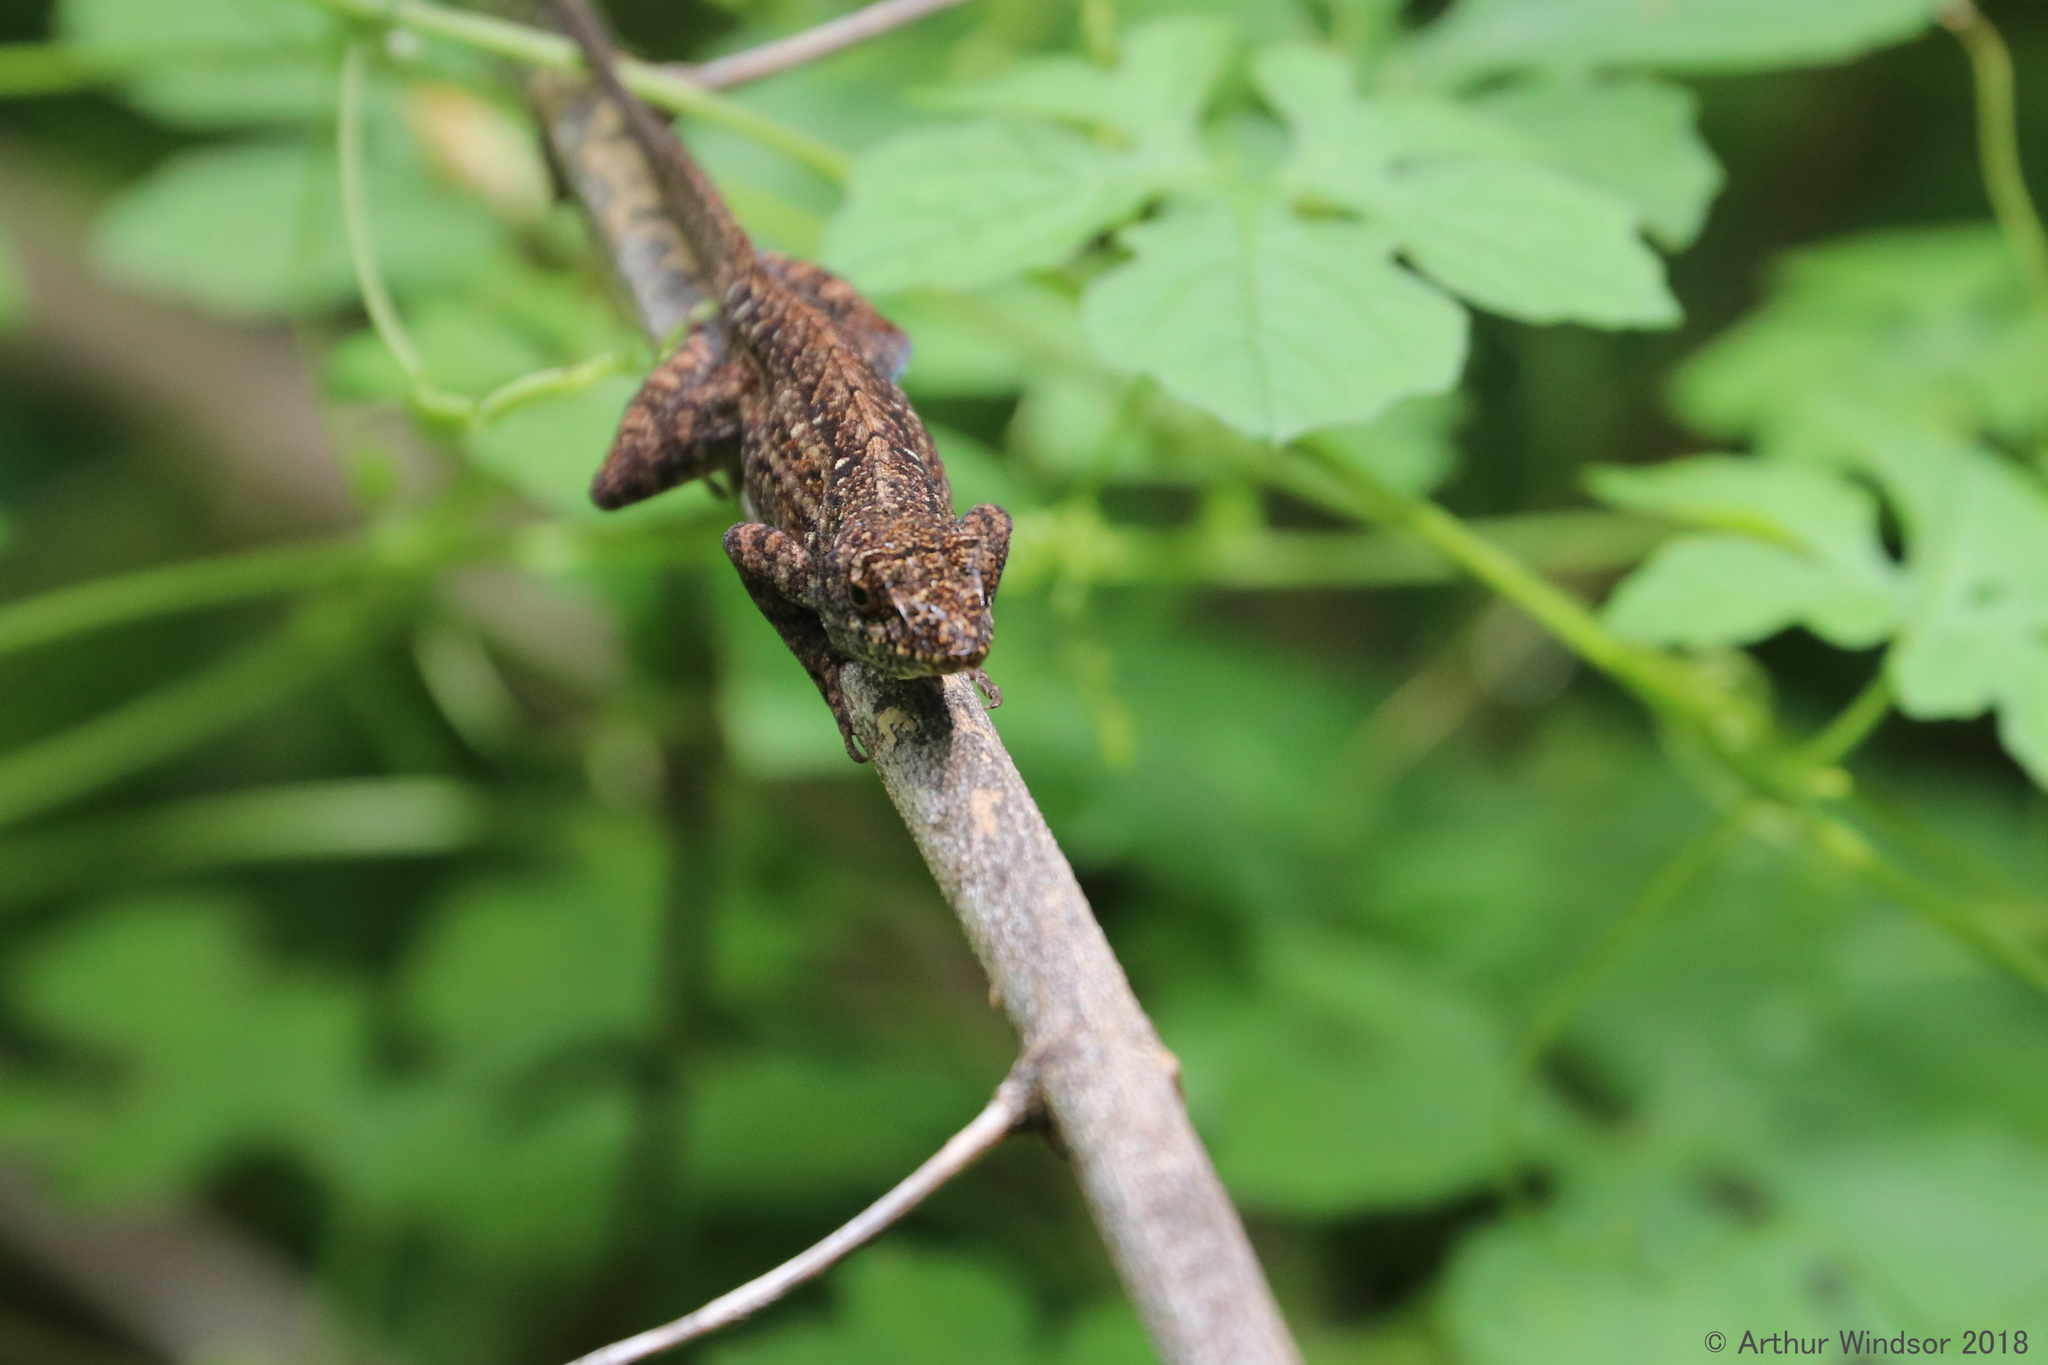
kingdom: Animalia
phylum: Chordata
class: Squamata
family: Dactyloidae
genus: Anolis
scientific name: Anolis sagrei
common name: Brown anole
